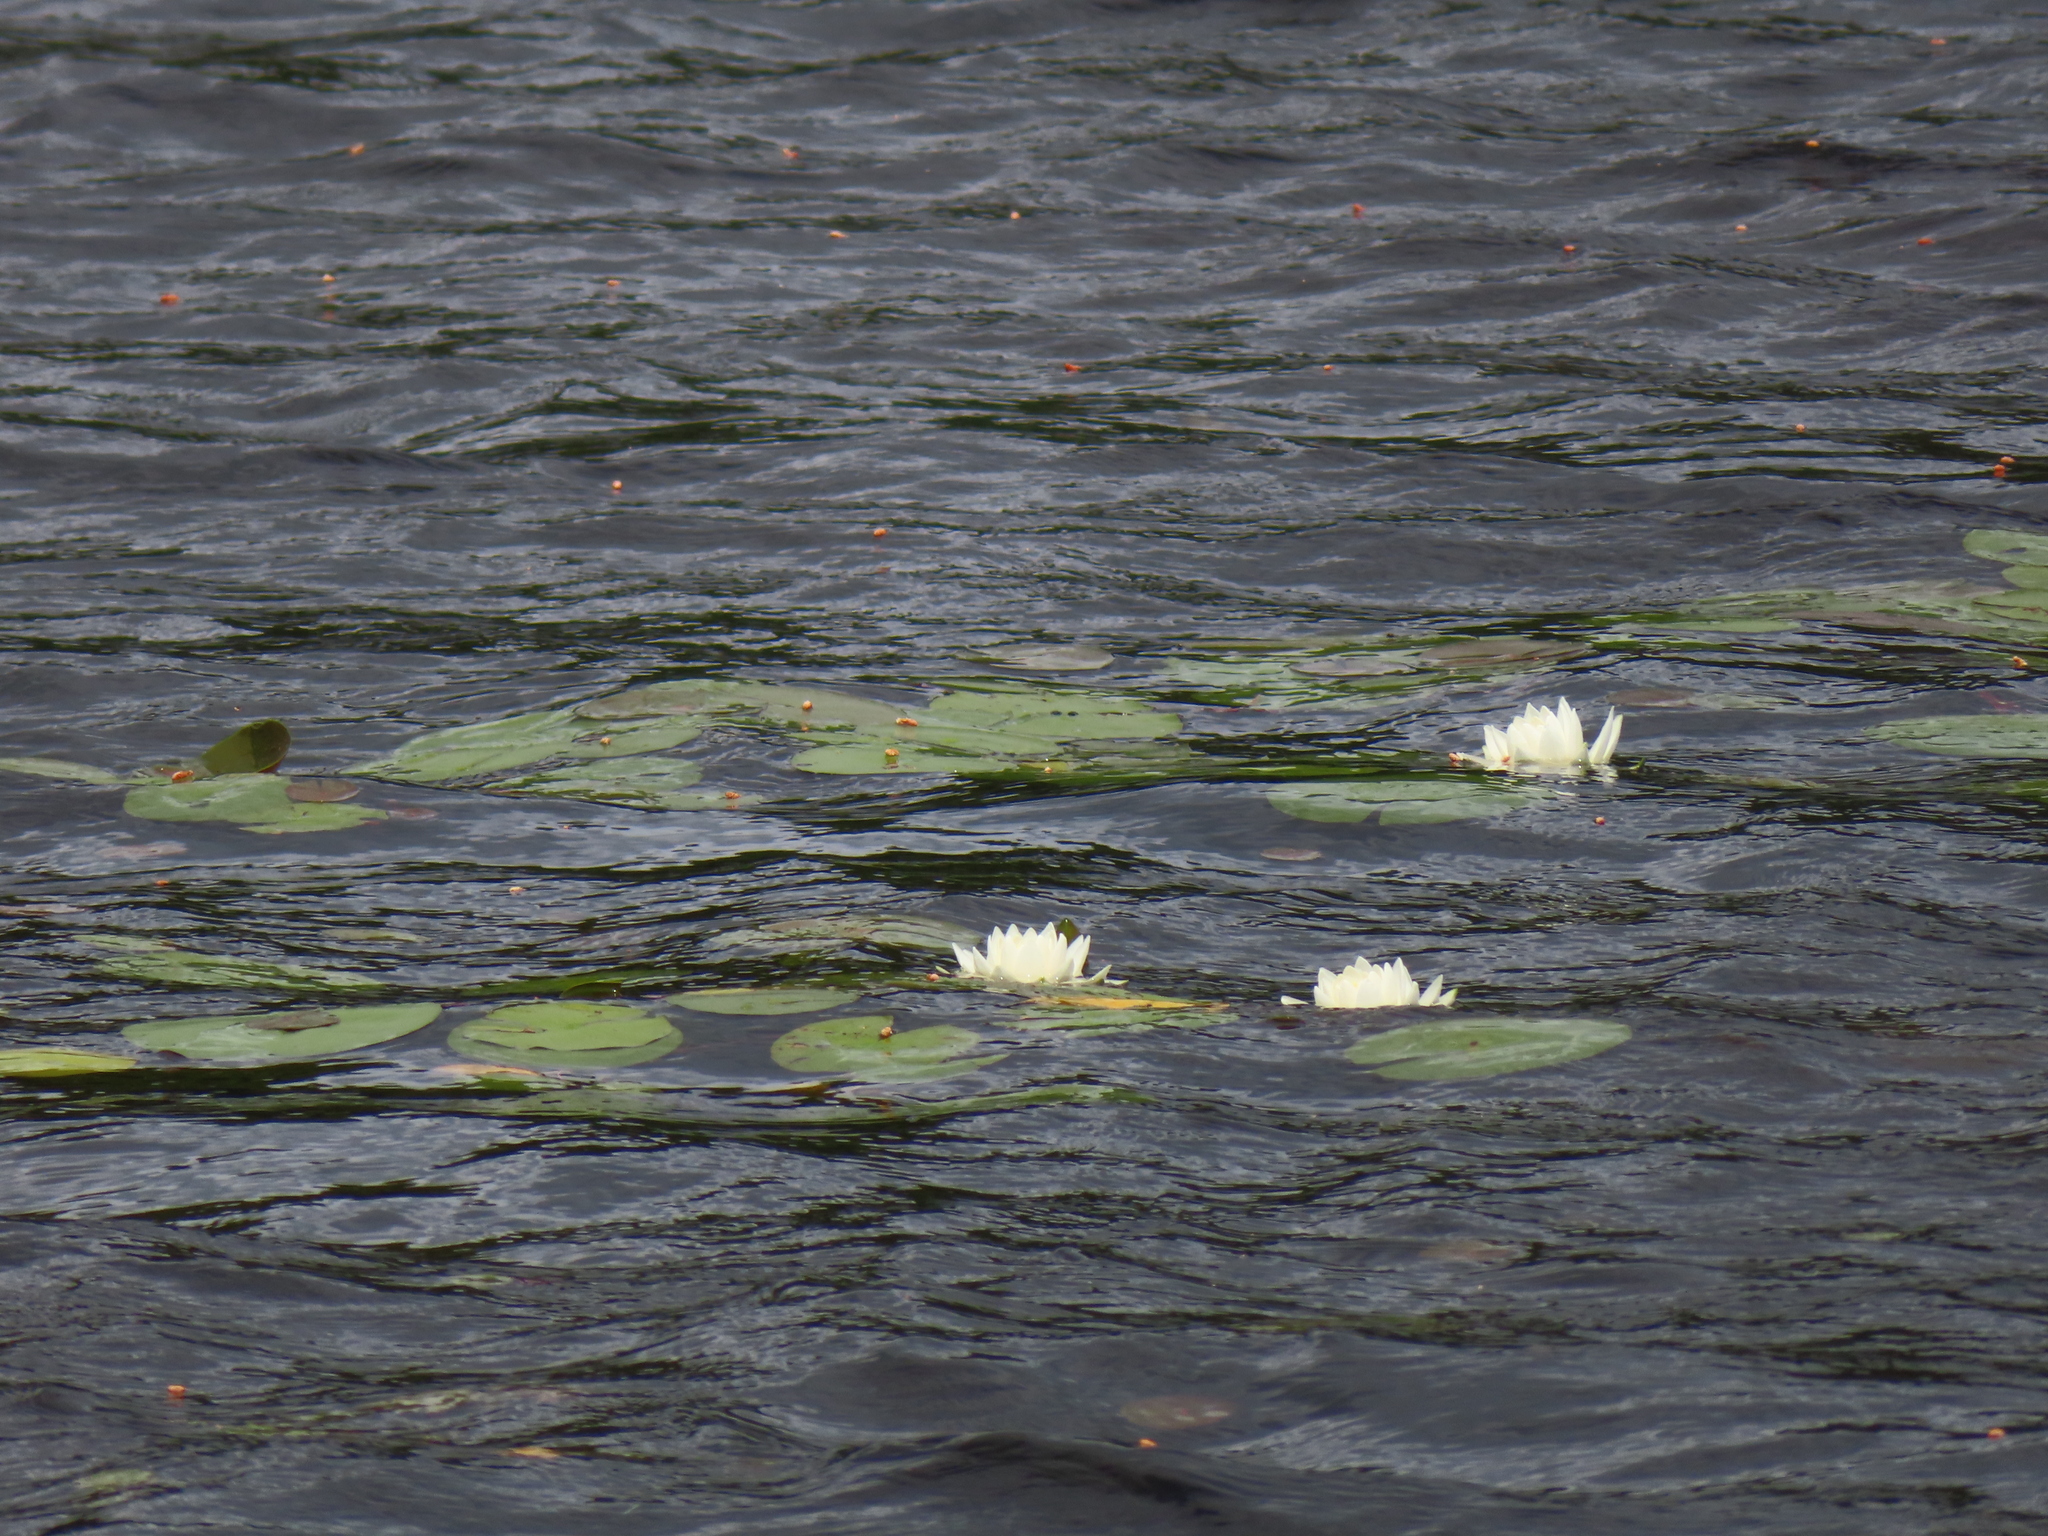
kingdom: Plantae
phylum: Tracheophyta
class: Magnoliopsida
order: Nymphaeales
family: Nymphaeaceae
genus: Nymphaea
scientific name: Nymphaea odorata
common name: Fragrant water-lily
